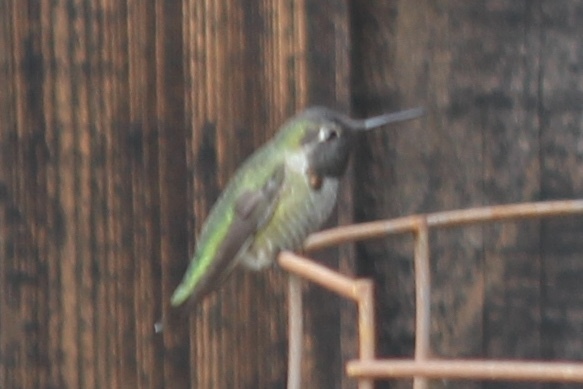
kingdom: Animalia
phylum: Chordata
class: Aves
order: Apodiformes
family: Trochilidae
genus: Calypte
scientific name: Calypte anna
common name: Anna's hummingbird
